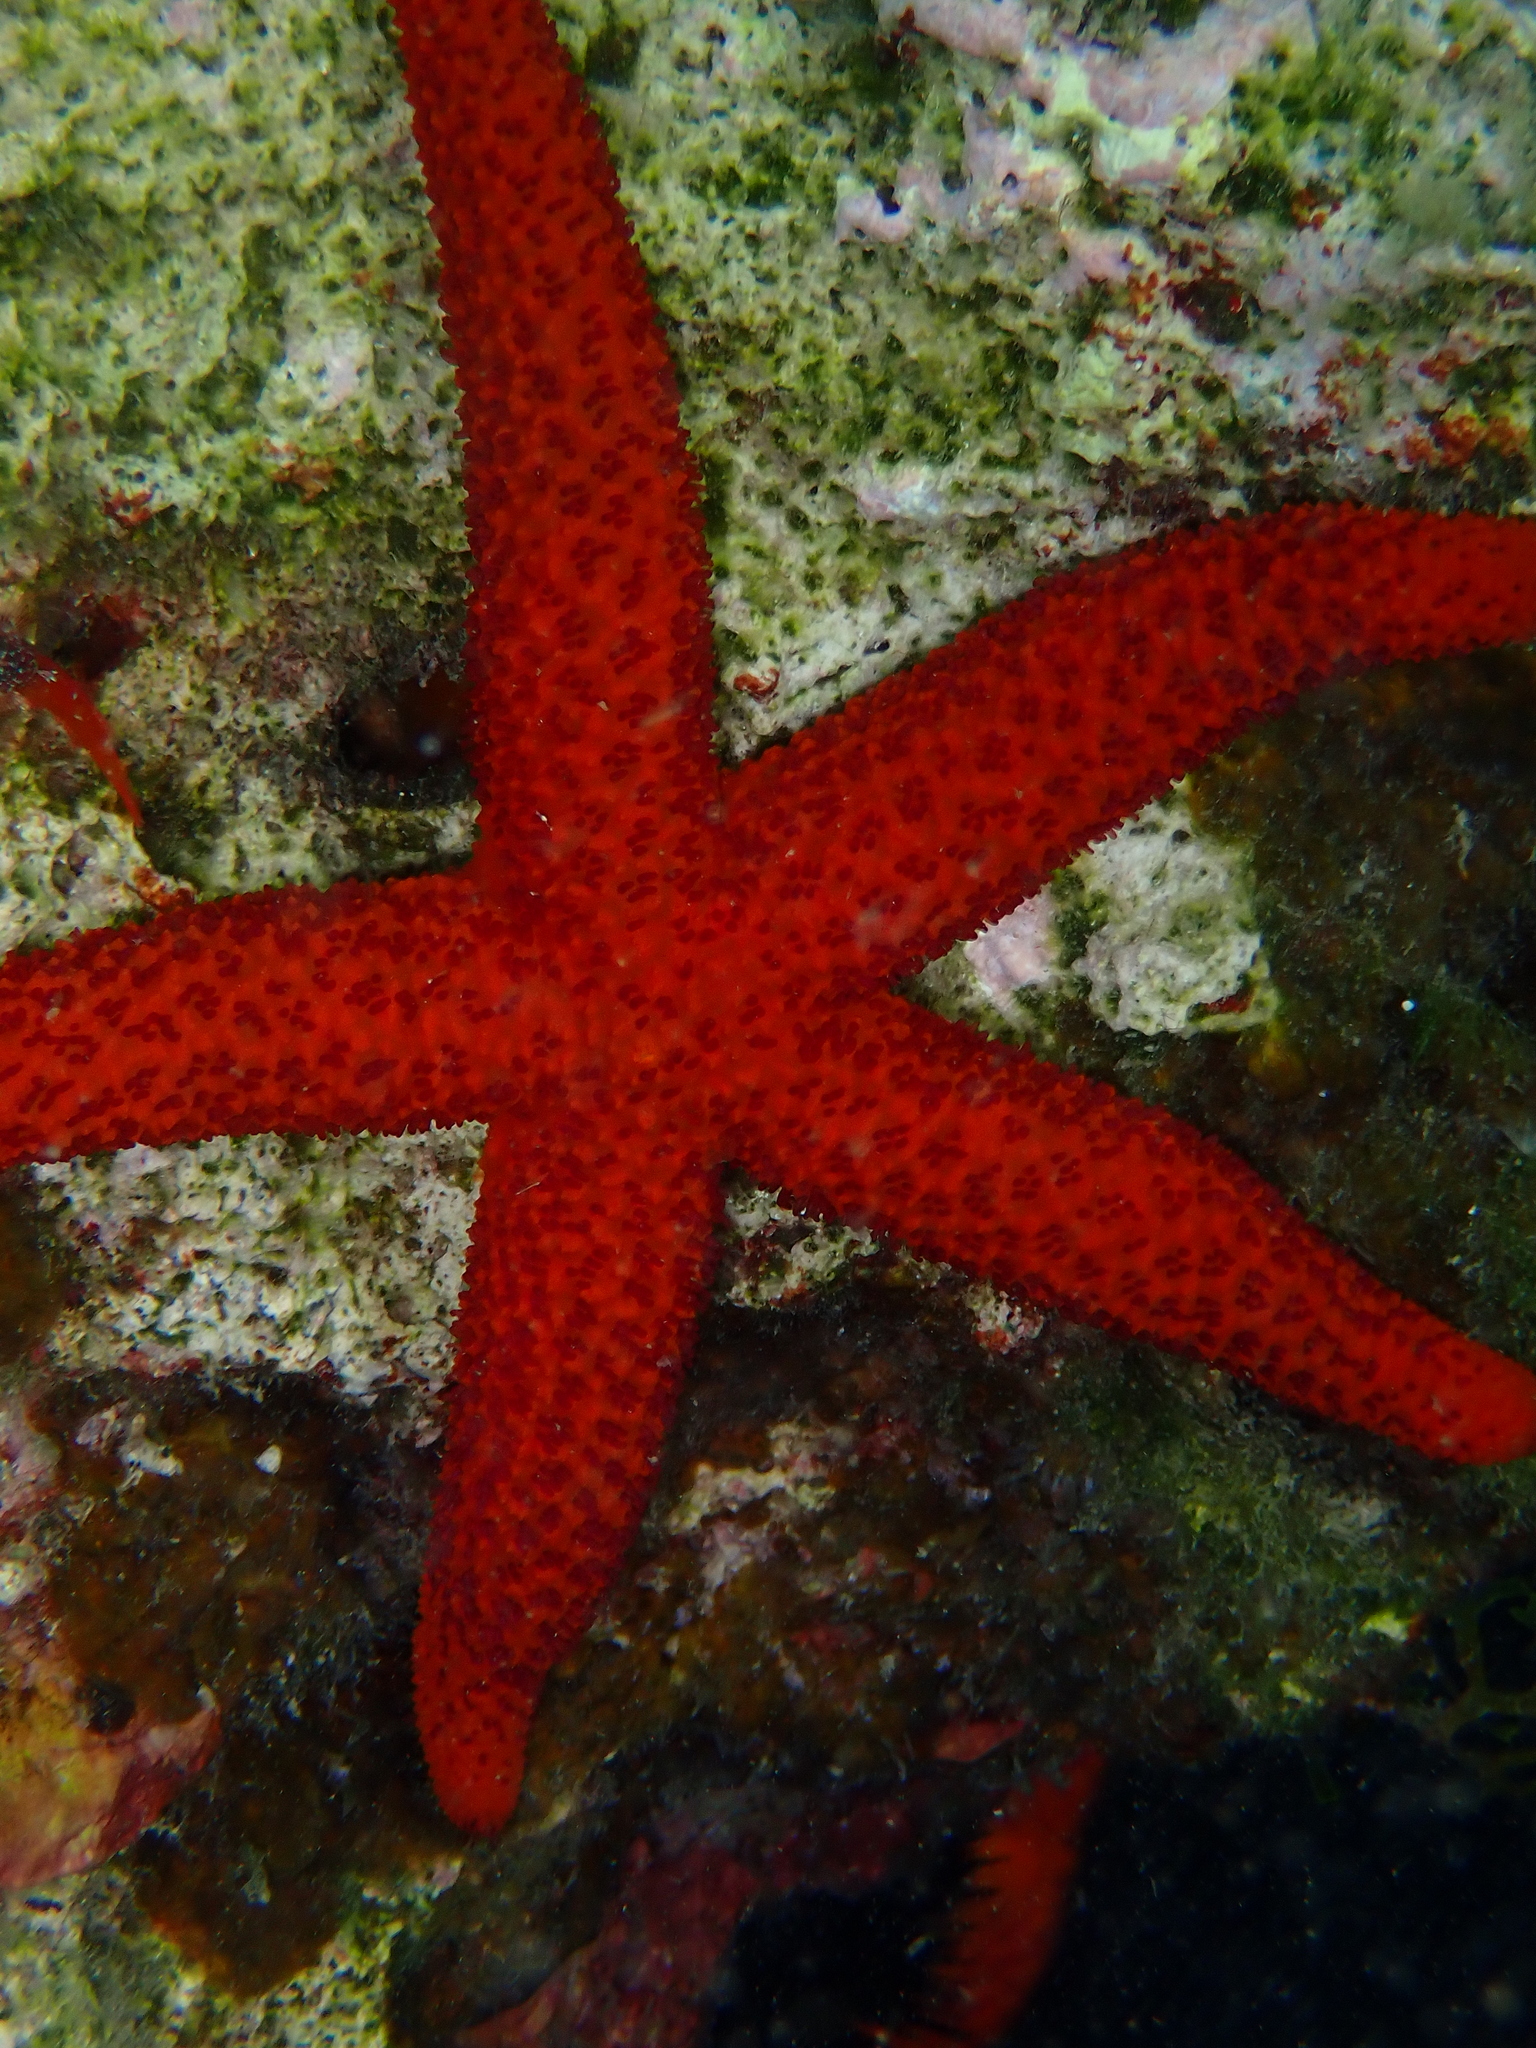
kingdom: Animalia
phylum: Echinodermata
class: Asteroidea
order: Spinulosida
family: Echinasteridae
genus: Echinaster
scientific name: Echinaster sepositus
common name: Red starfish
